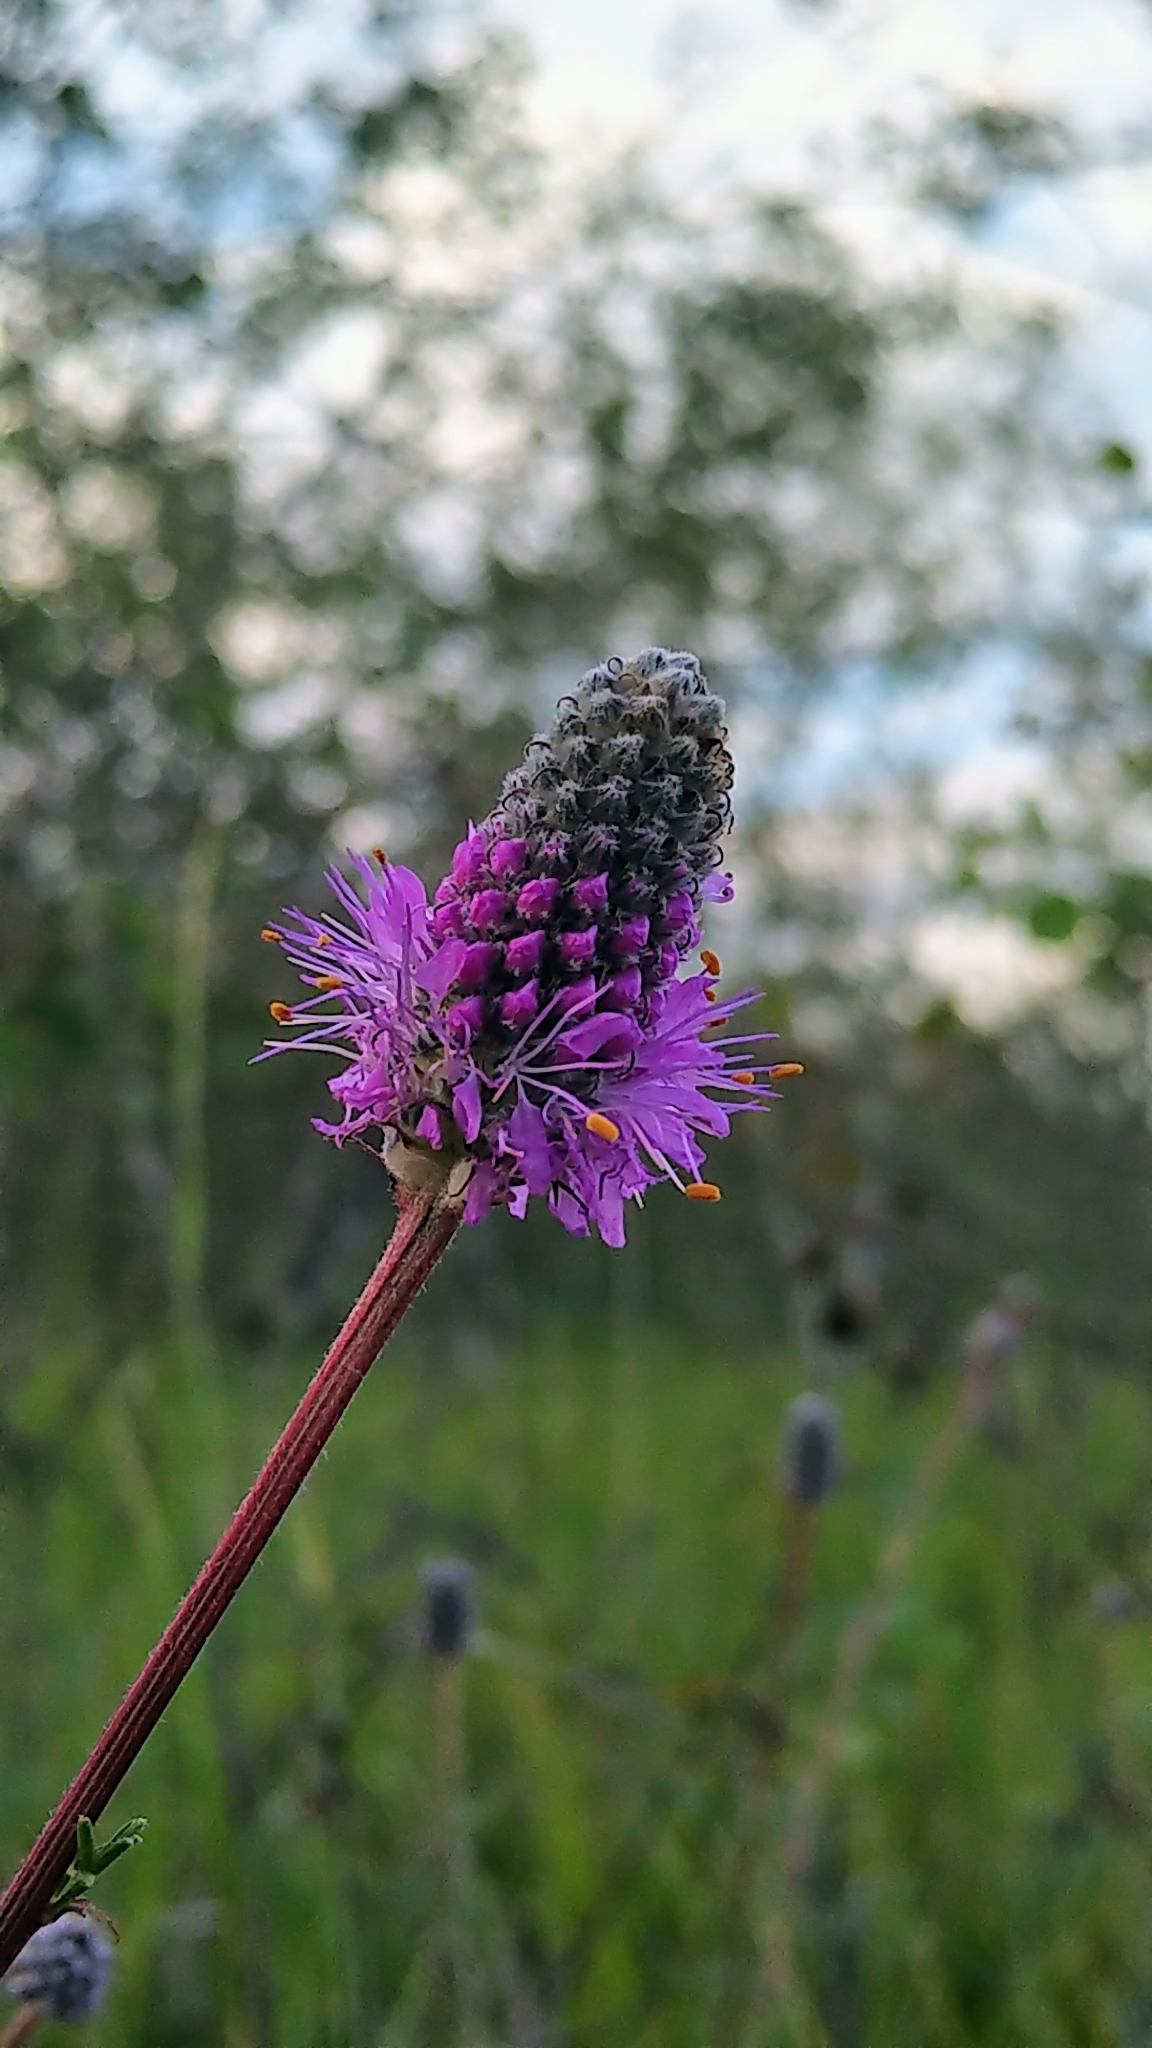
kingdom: Plantae
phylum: Tracheophyta
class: Magnoliopsida
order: Fabales
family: Fabaceae
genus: Dalea
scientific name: Dalea purpurea
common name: Purple prairie-clover
